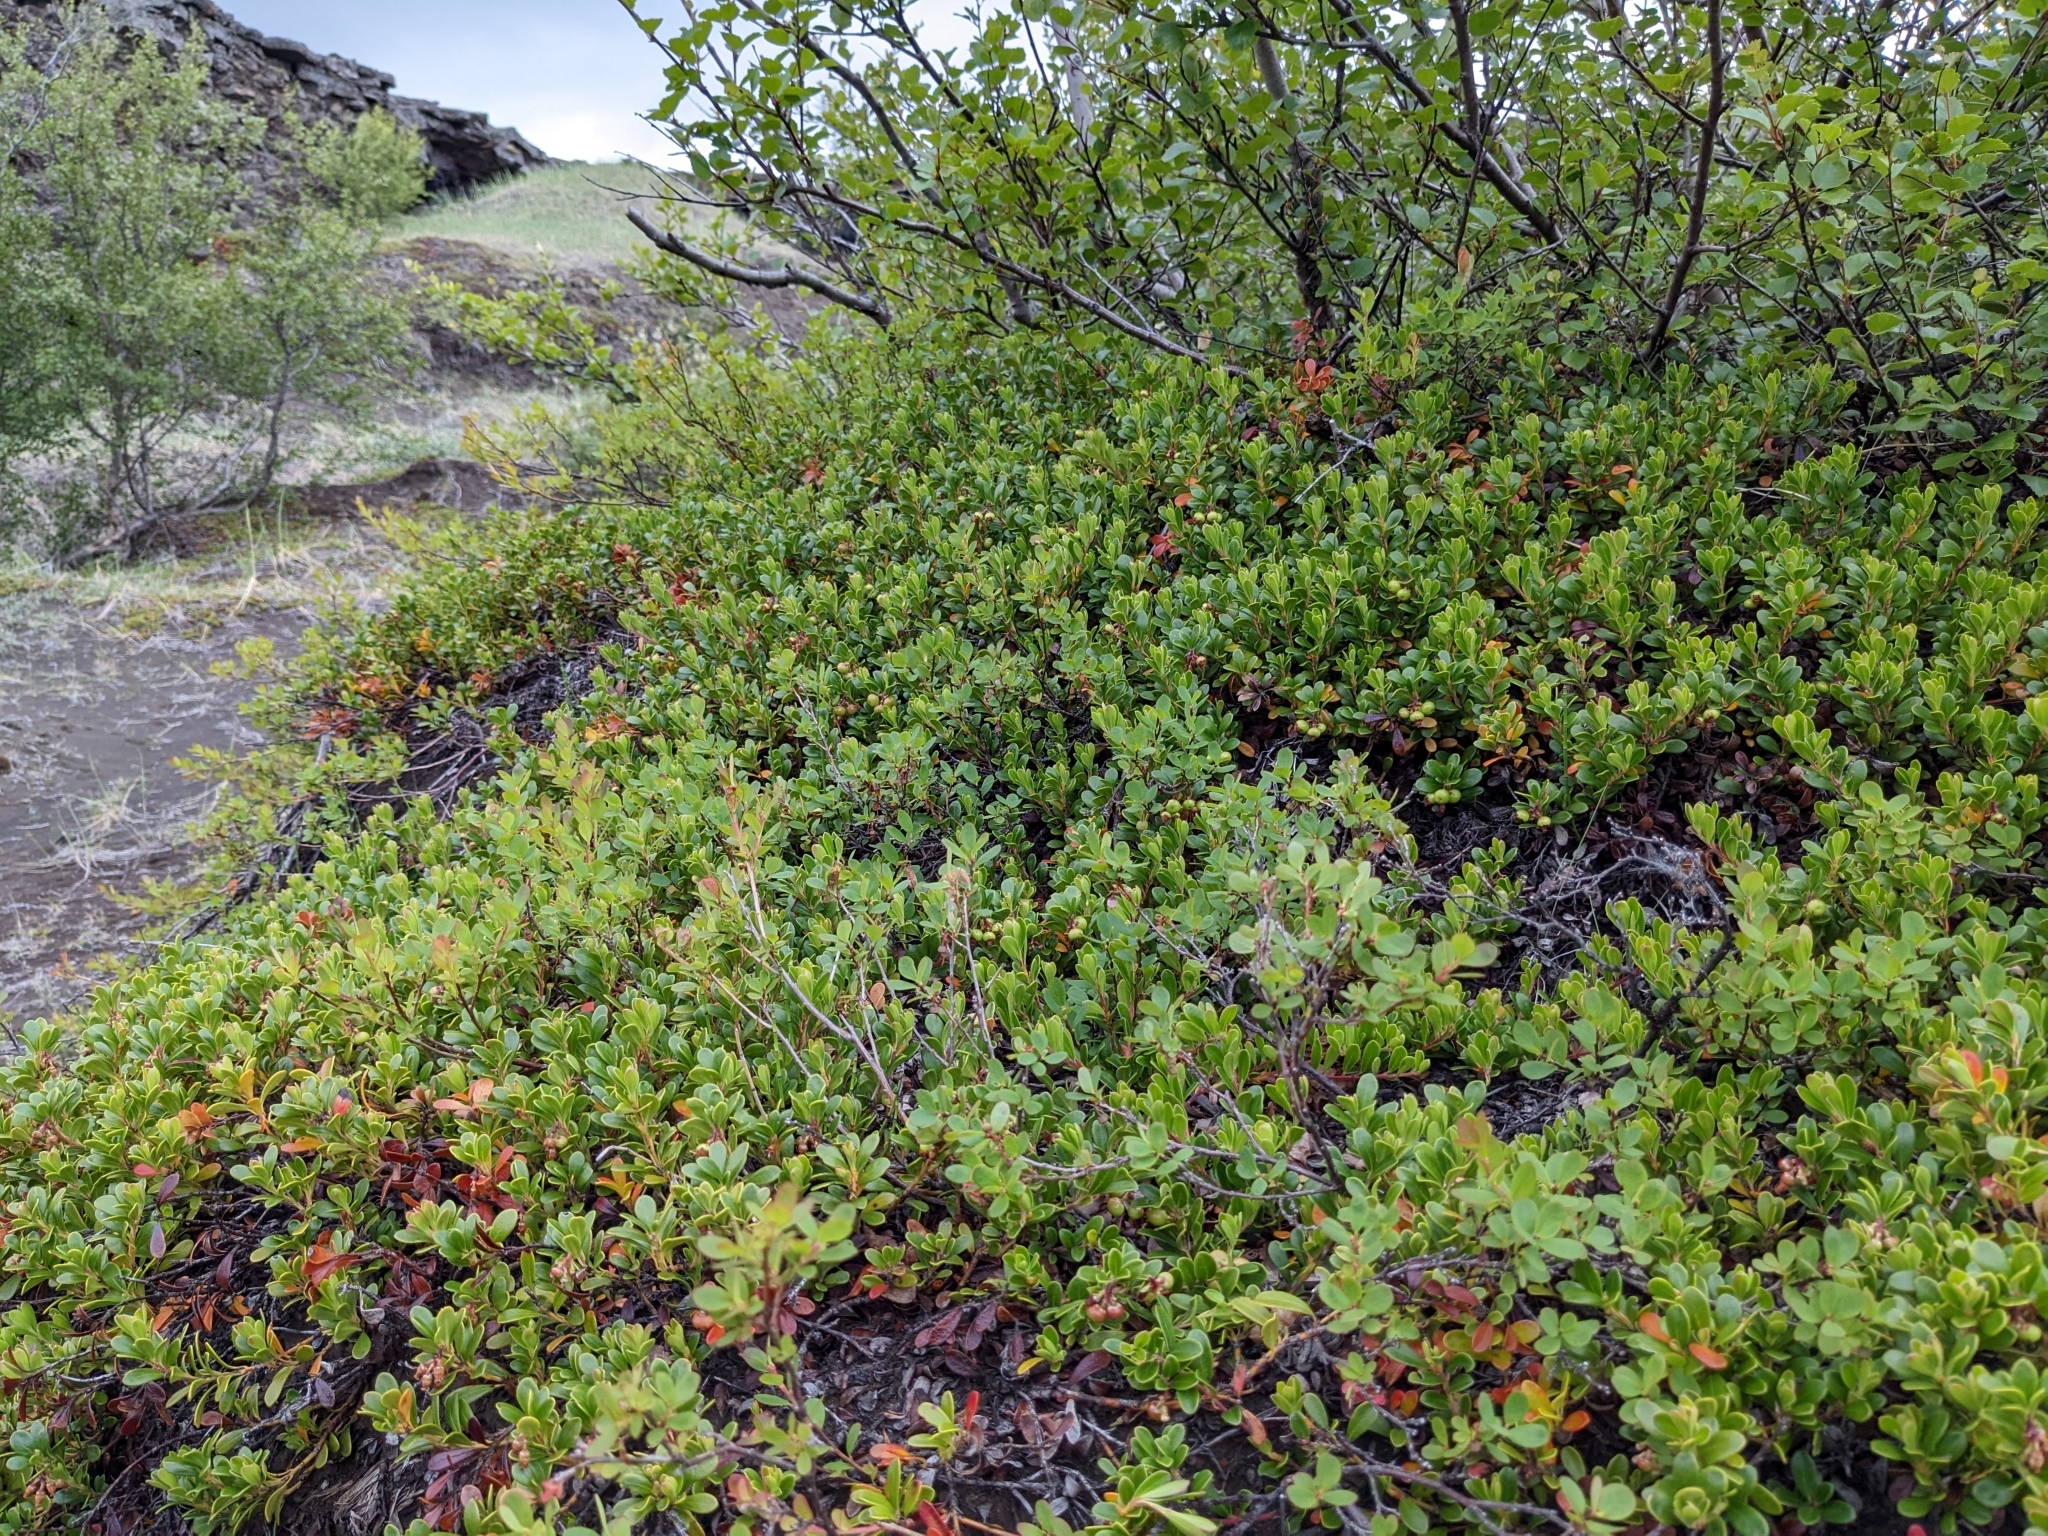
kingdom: Plantae
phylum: Tracheophyta
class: Magnoliopsida
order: Ericales
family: Ericaceae
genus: Arctostaphylos
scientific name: Arctostaphylos uva-ursi
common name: Bearberry
